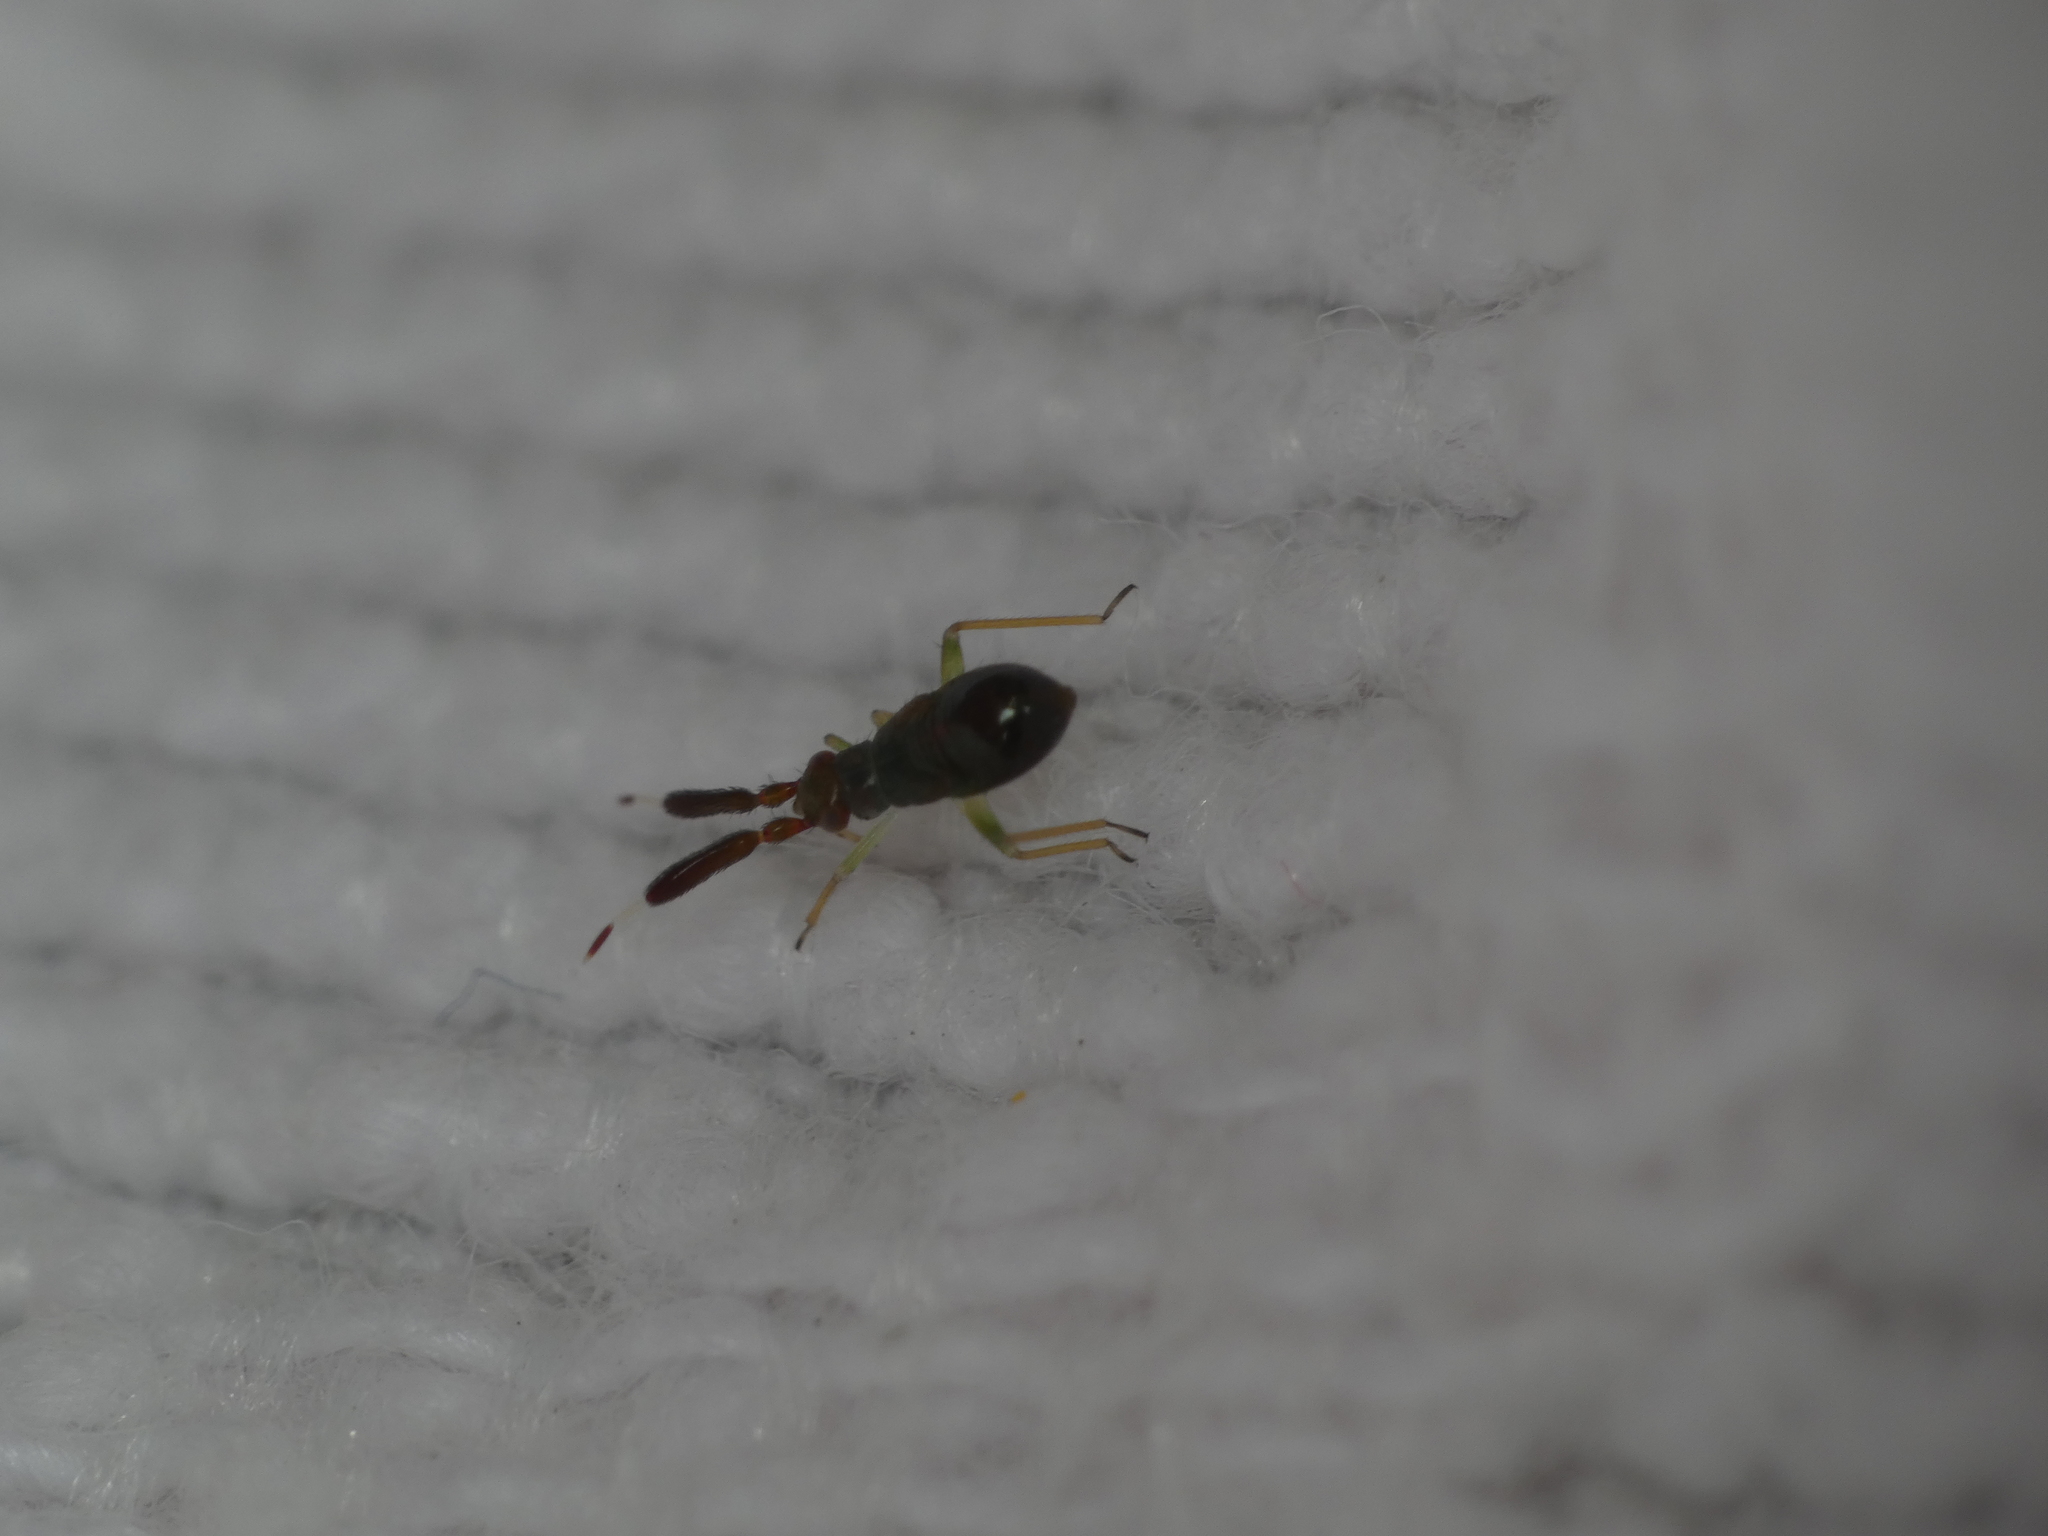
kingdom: Animalia
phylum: Arthropoda
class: Insecta
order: Hemiptera
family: Miridae
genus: Heterotoma
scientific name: Heterotoma planicornis
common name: Plant bug
